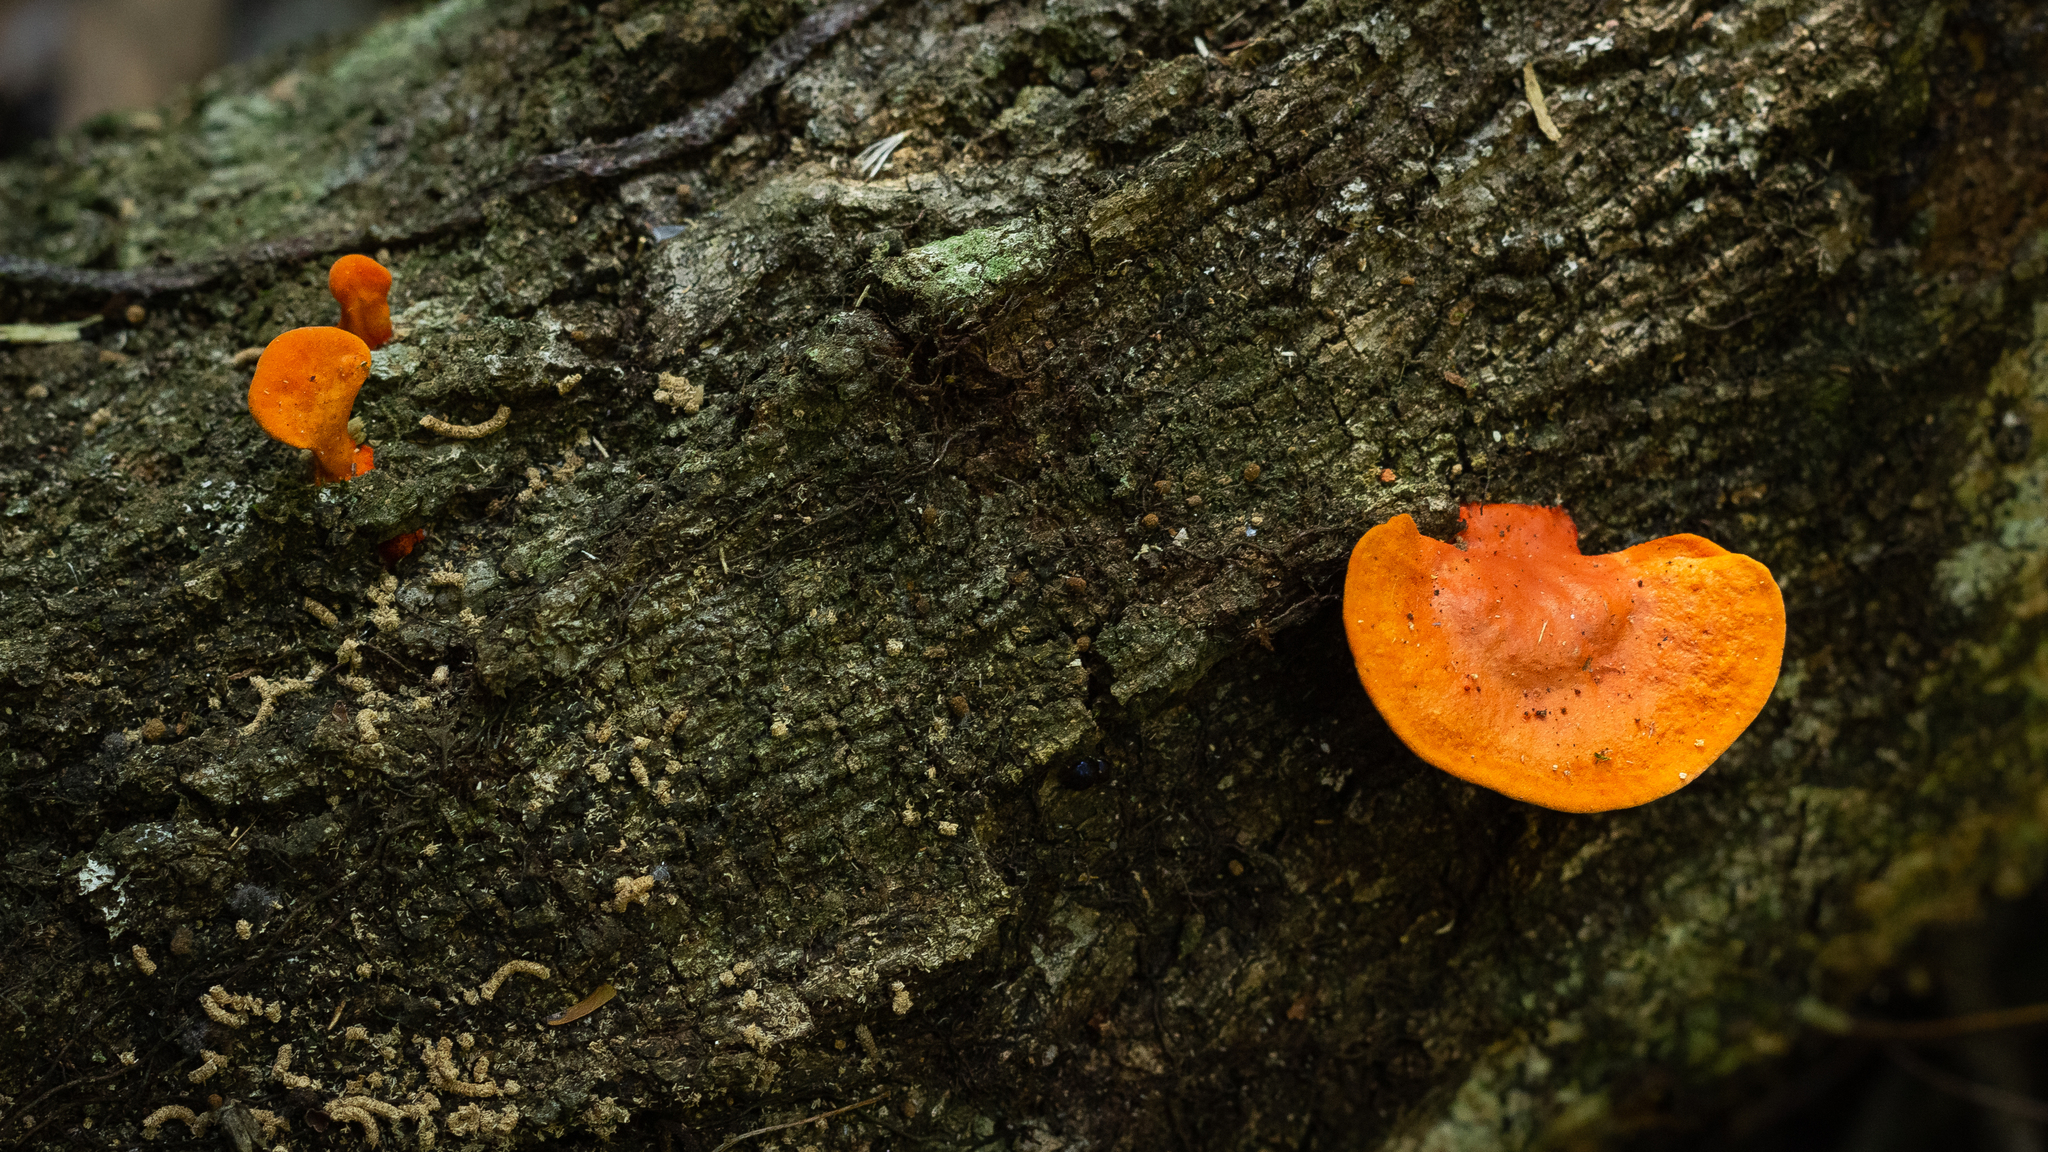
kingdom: Fungi
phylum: Basidiomycota
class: Agaricomycetes
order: Polyporales
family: Polyporaceae
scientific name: Polyporaceae
